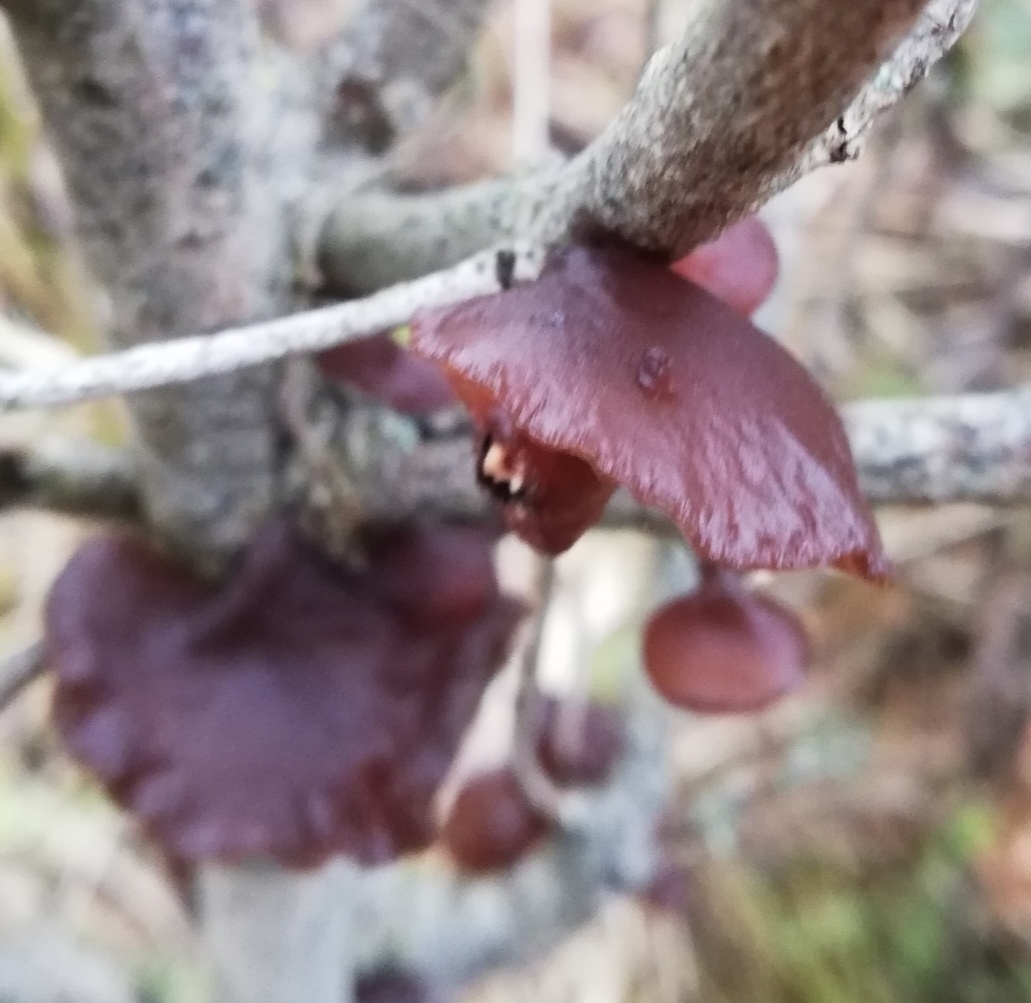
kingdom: Fungi
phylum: Basidiomycota
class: Agaricomycetes
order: Auriculariales
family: Auriculariaceae
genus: Exidia
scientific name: Exidia recisa
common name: Amber jelly
